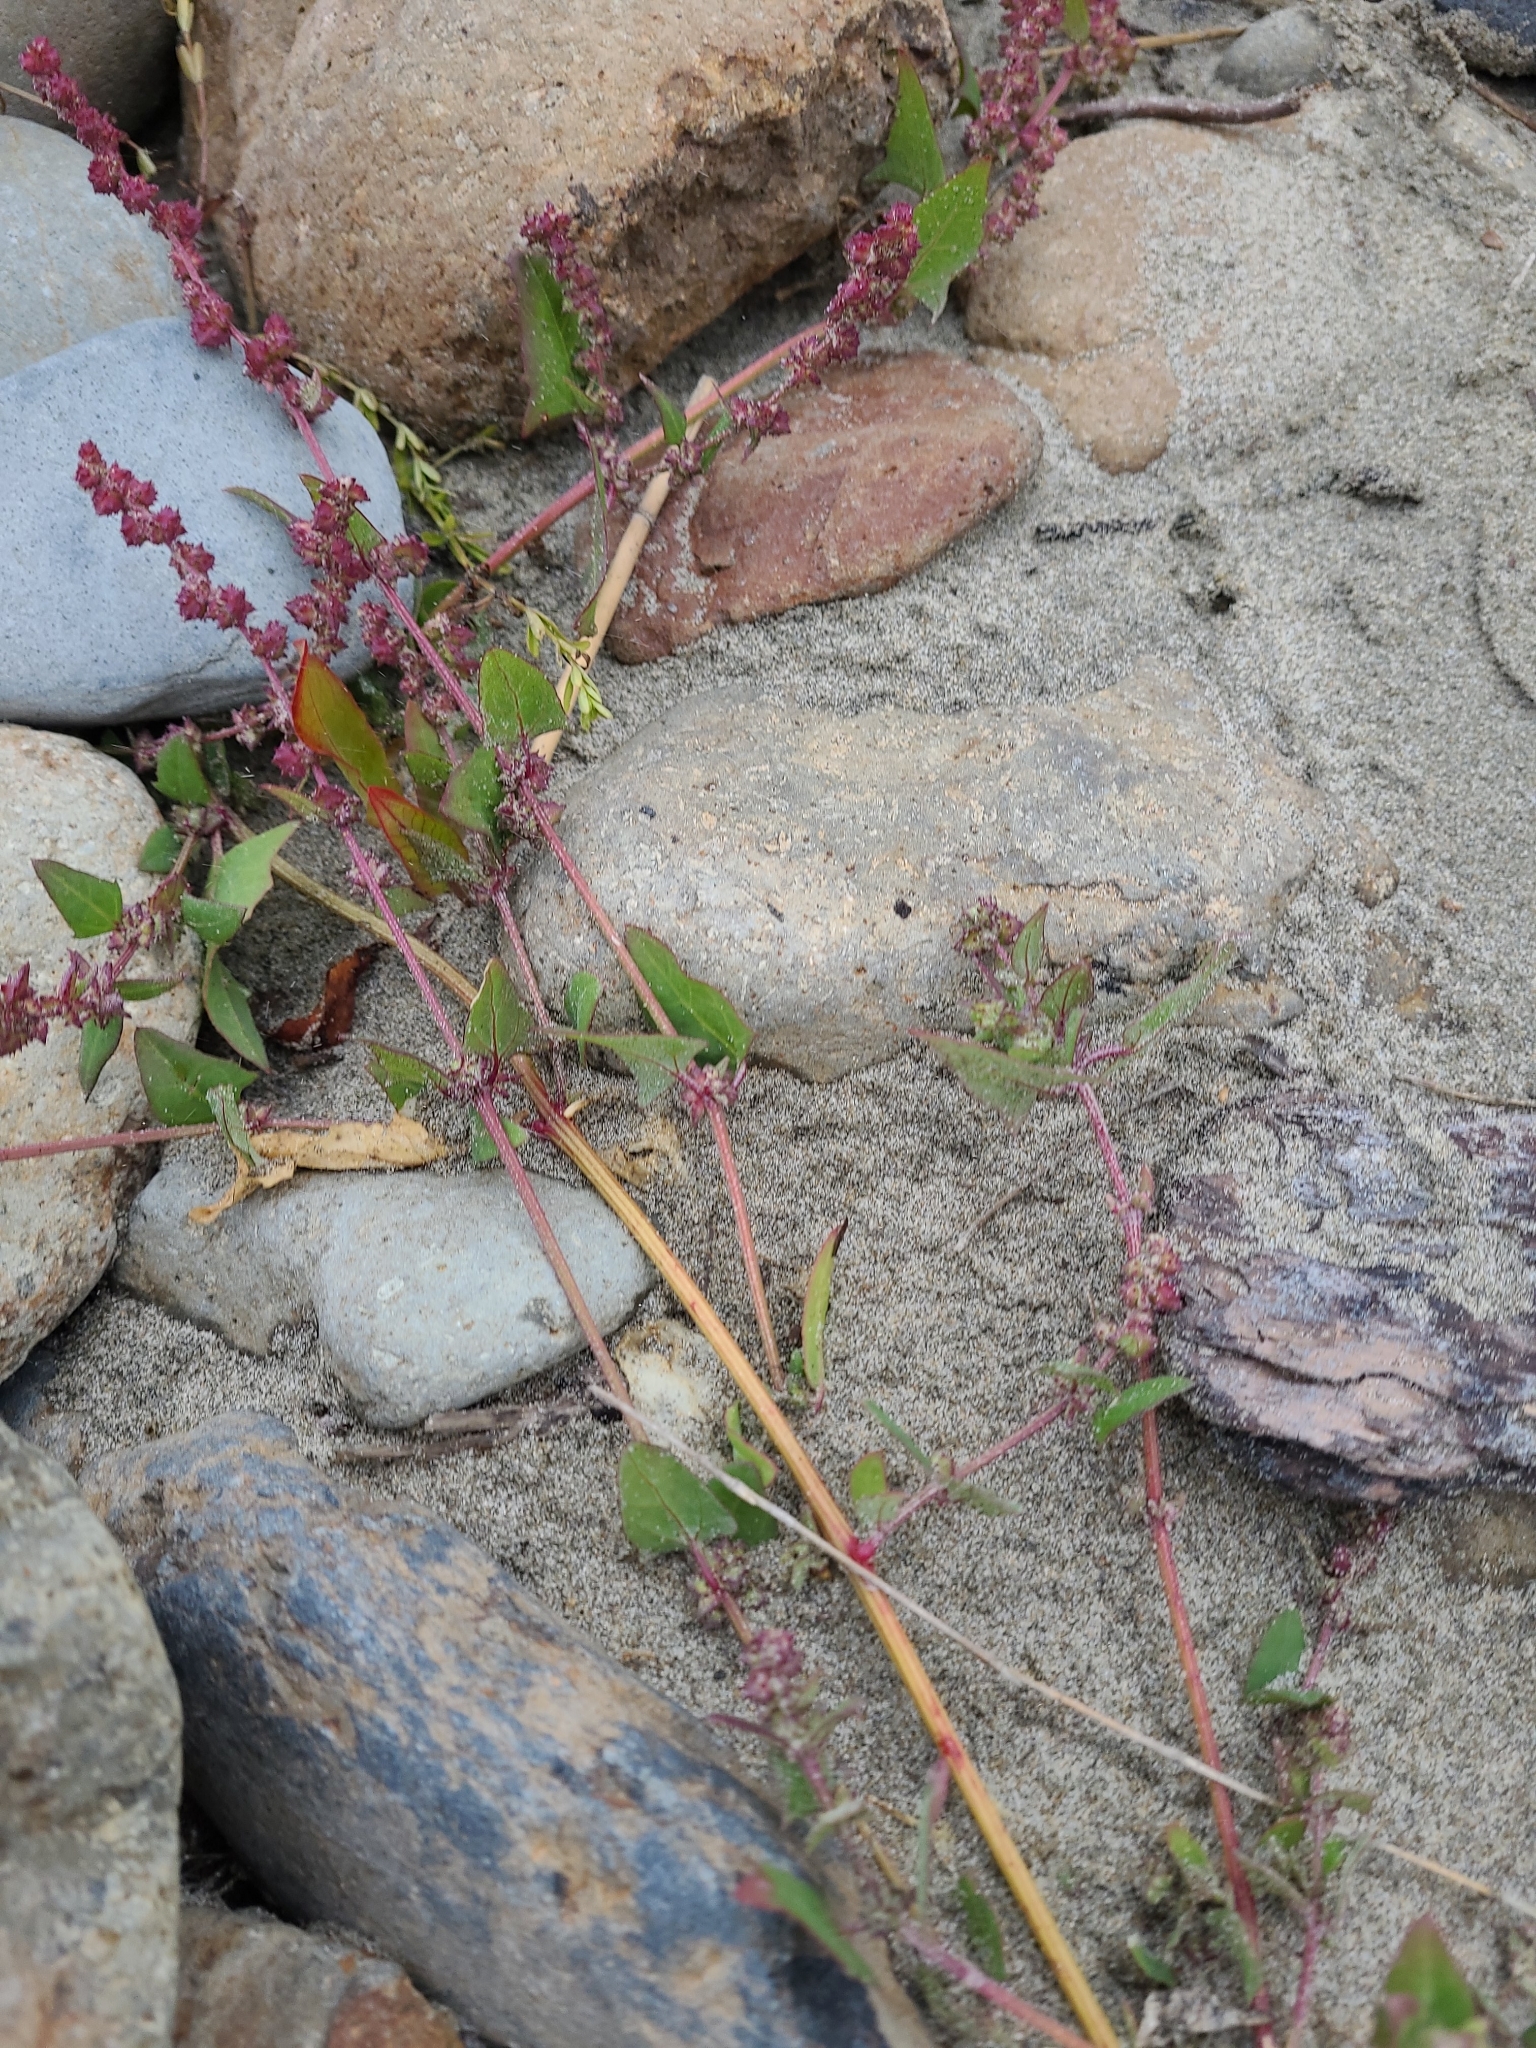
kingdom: Plantae
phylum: Tracheophyta
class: Magnoliopsida
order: Caryophyllales
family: Amaranthaceae
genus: Atriplex
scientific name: Atriplex prostrata
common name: Spear-leaved orache
